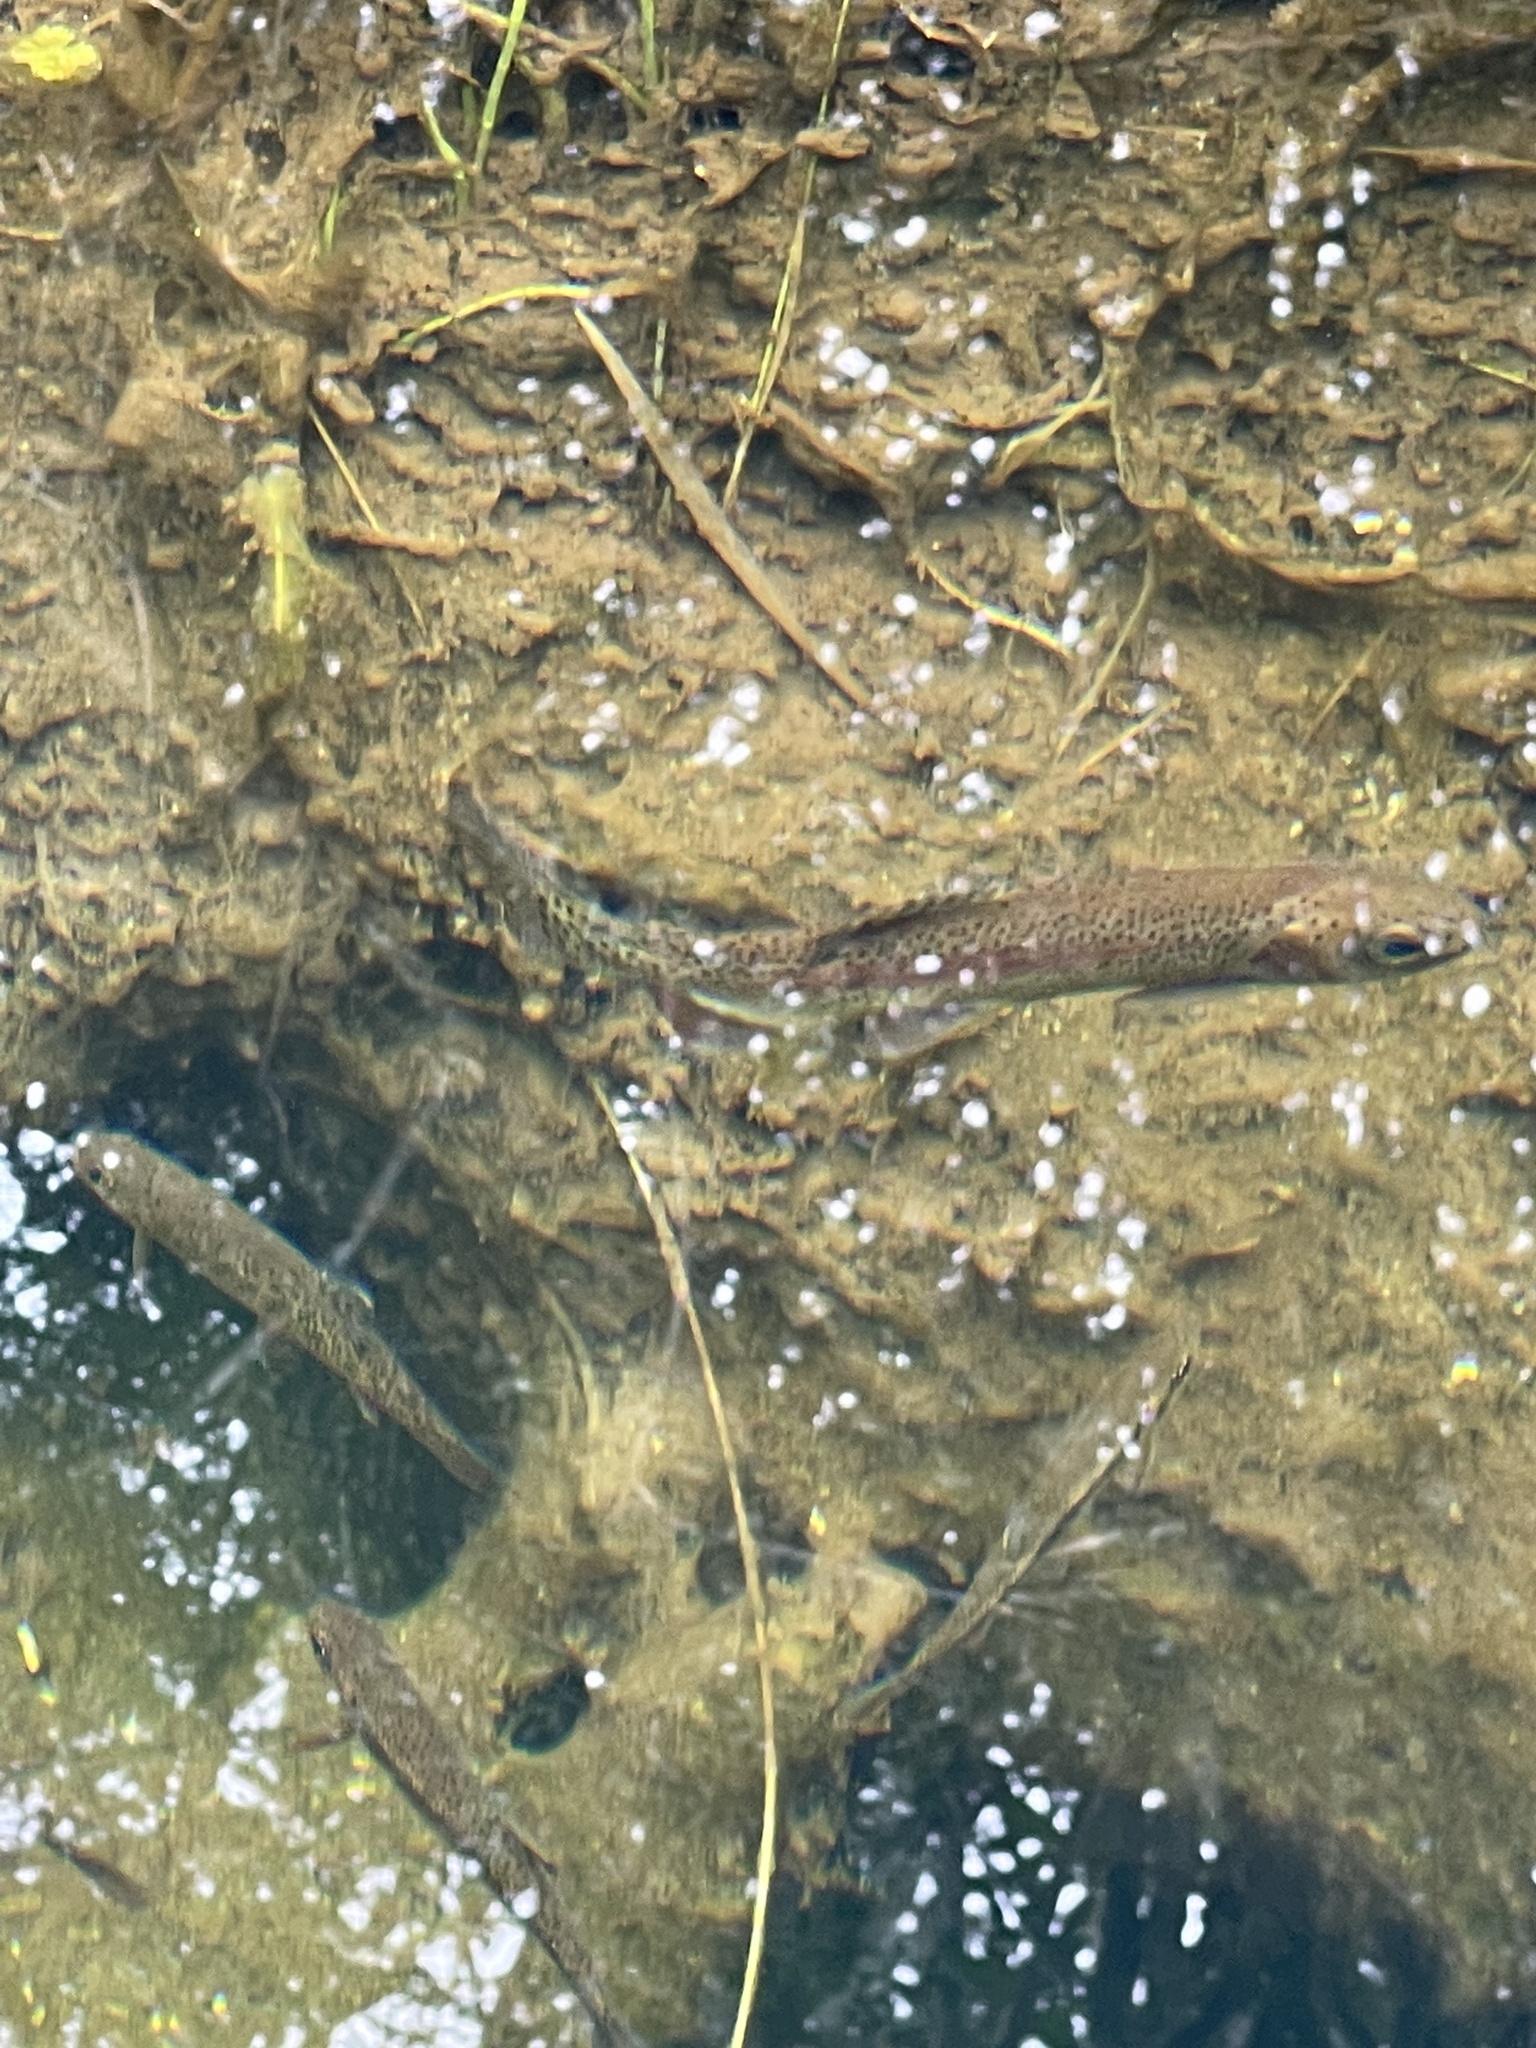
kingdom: Animalia
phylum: Chordata
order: Salmoniformes
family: Salmonidae
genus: Oncorhynchus
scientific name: Oncorhynchus mykiss
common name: Rainbow trout
